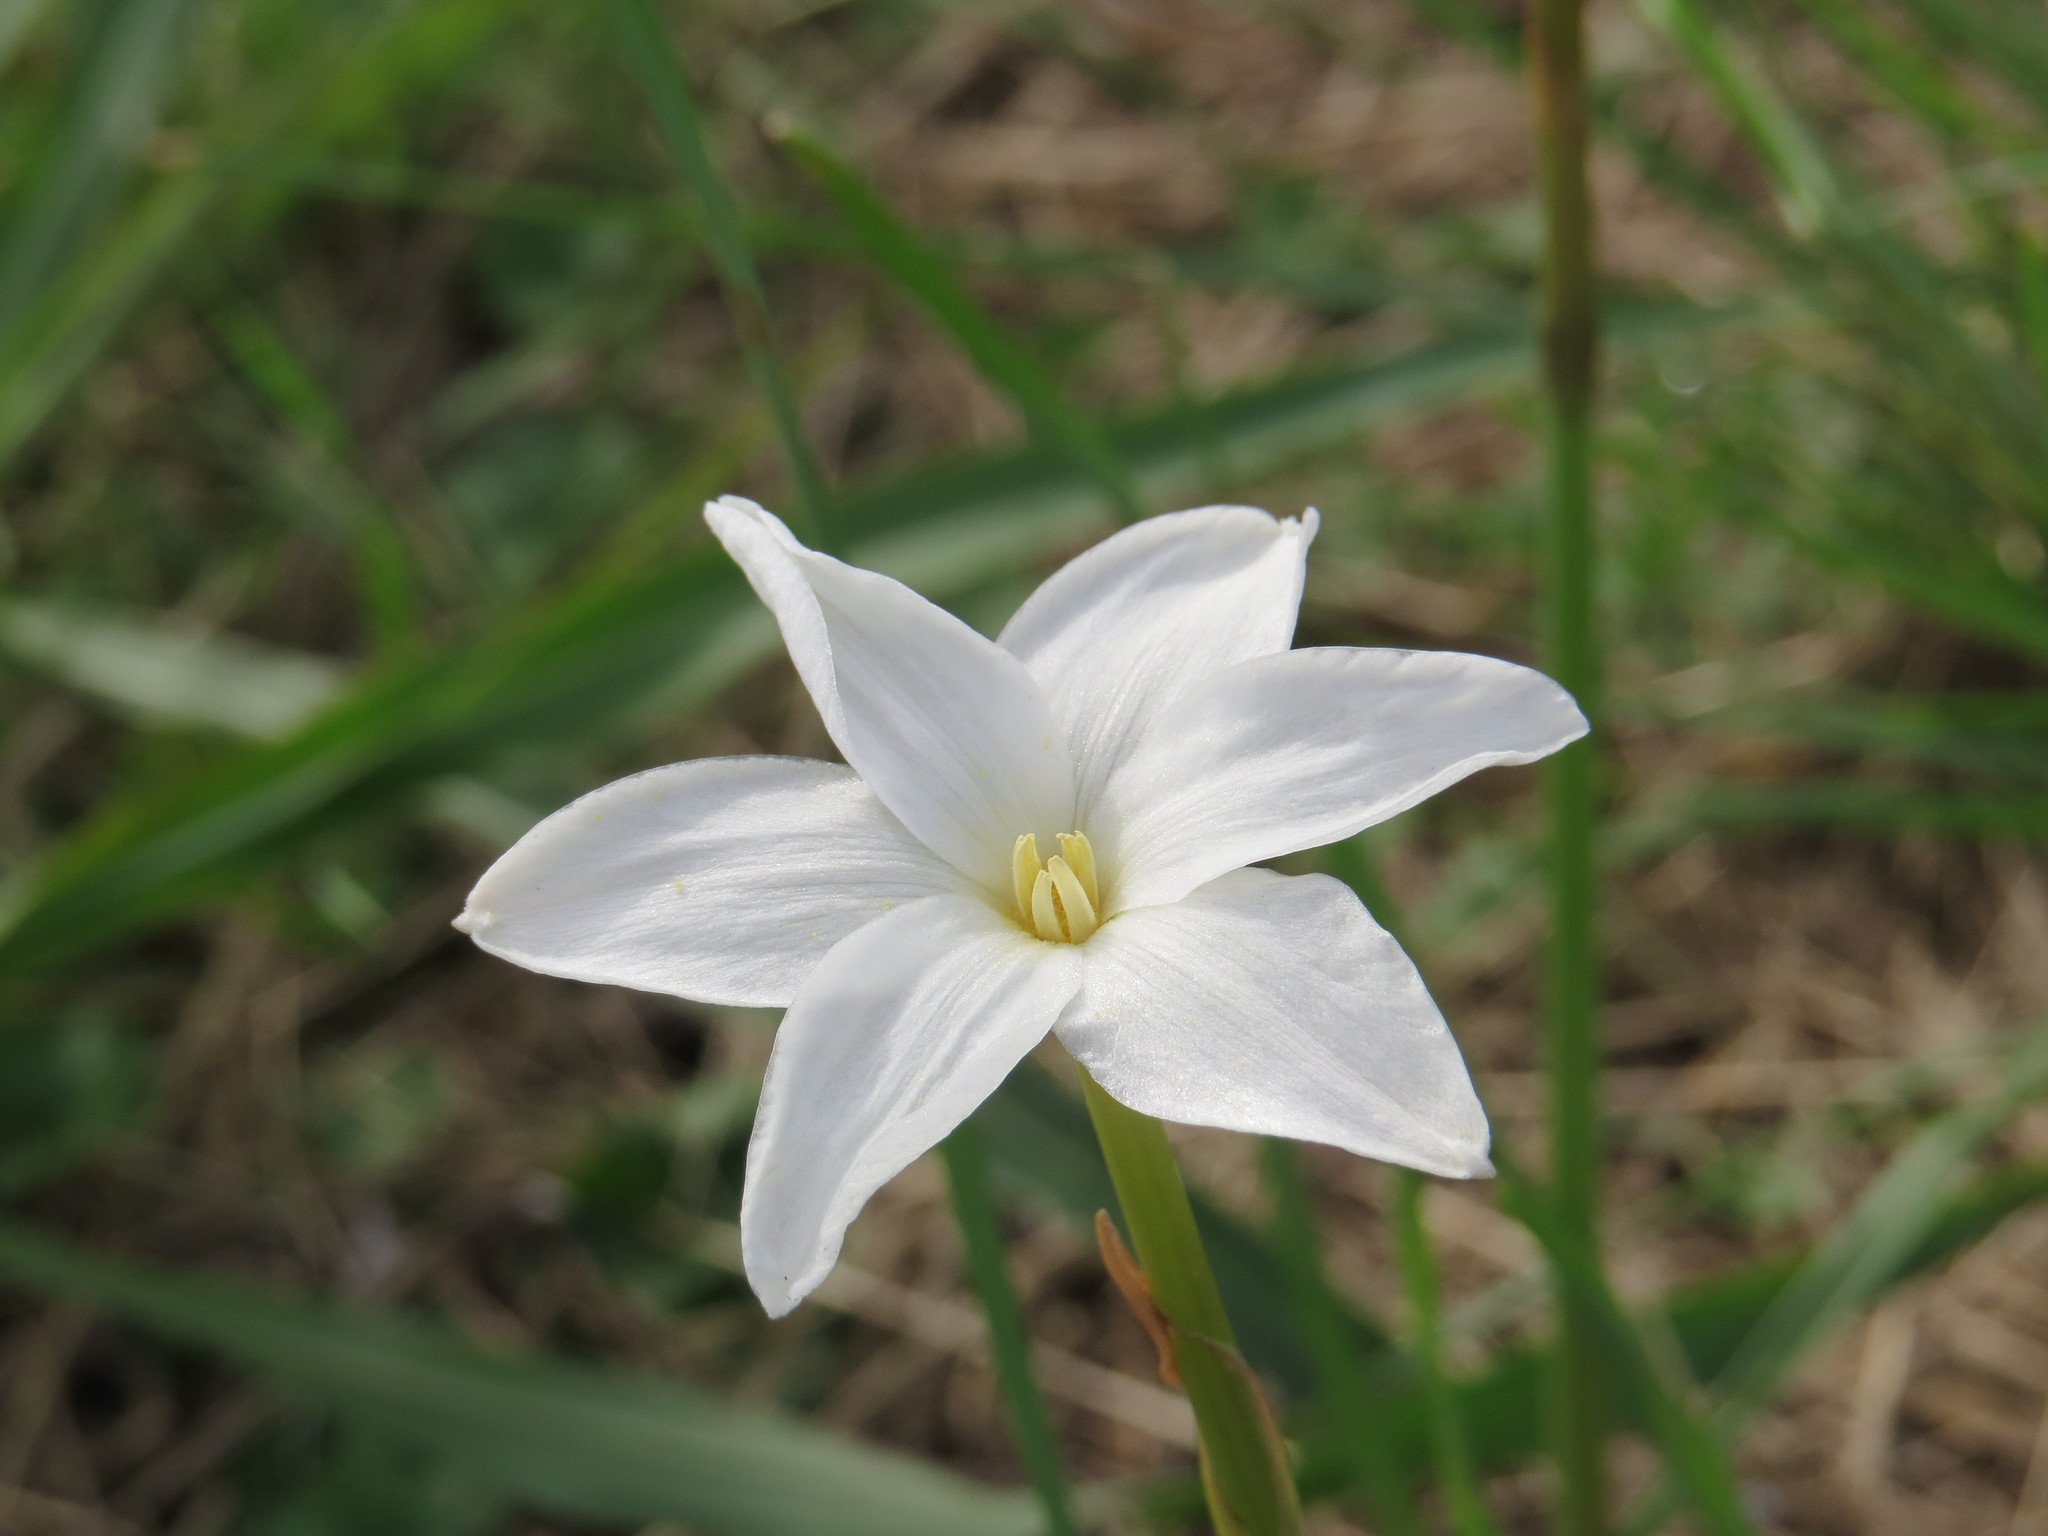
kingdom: Plantae
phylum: Tracheophyta
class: Liliopsida
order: Asparagales
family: Amaryllidaceae
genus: Zephyranthes
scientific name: Zephyranthes chlorosolen
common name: Evening rain-lily
